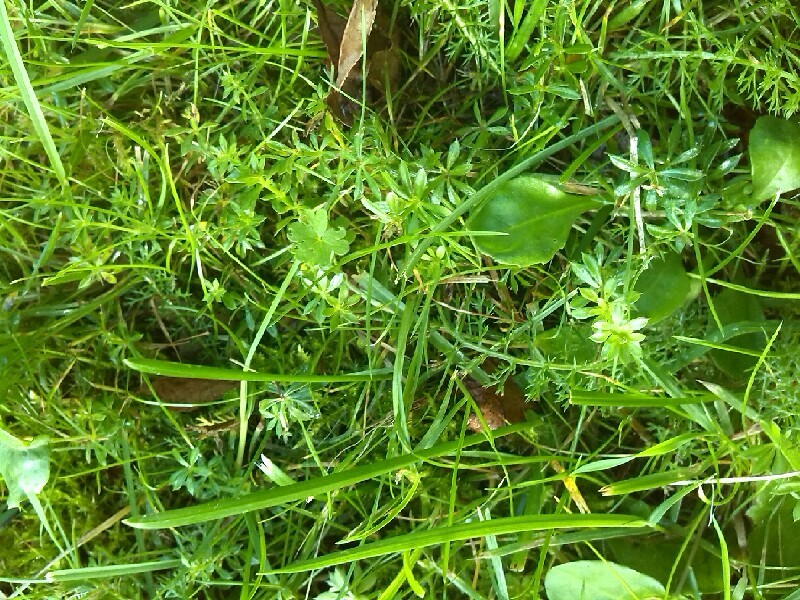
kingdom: Plantae
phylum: Tracheophyta
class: Magnoliopsida
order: Gentianales
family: Rubiaceae
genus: Galium
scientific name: Galium mollugo
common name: Hedge bedstraw
